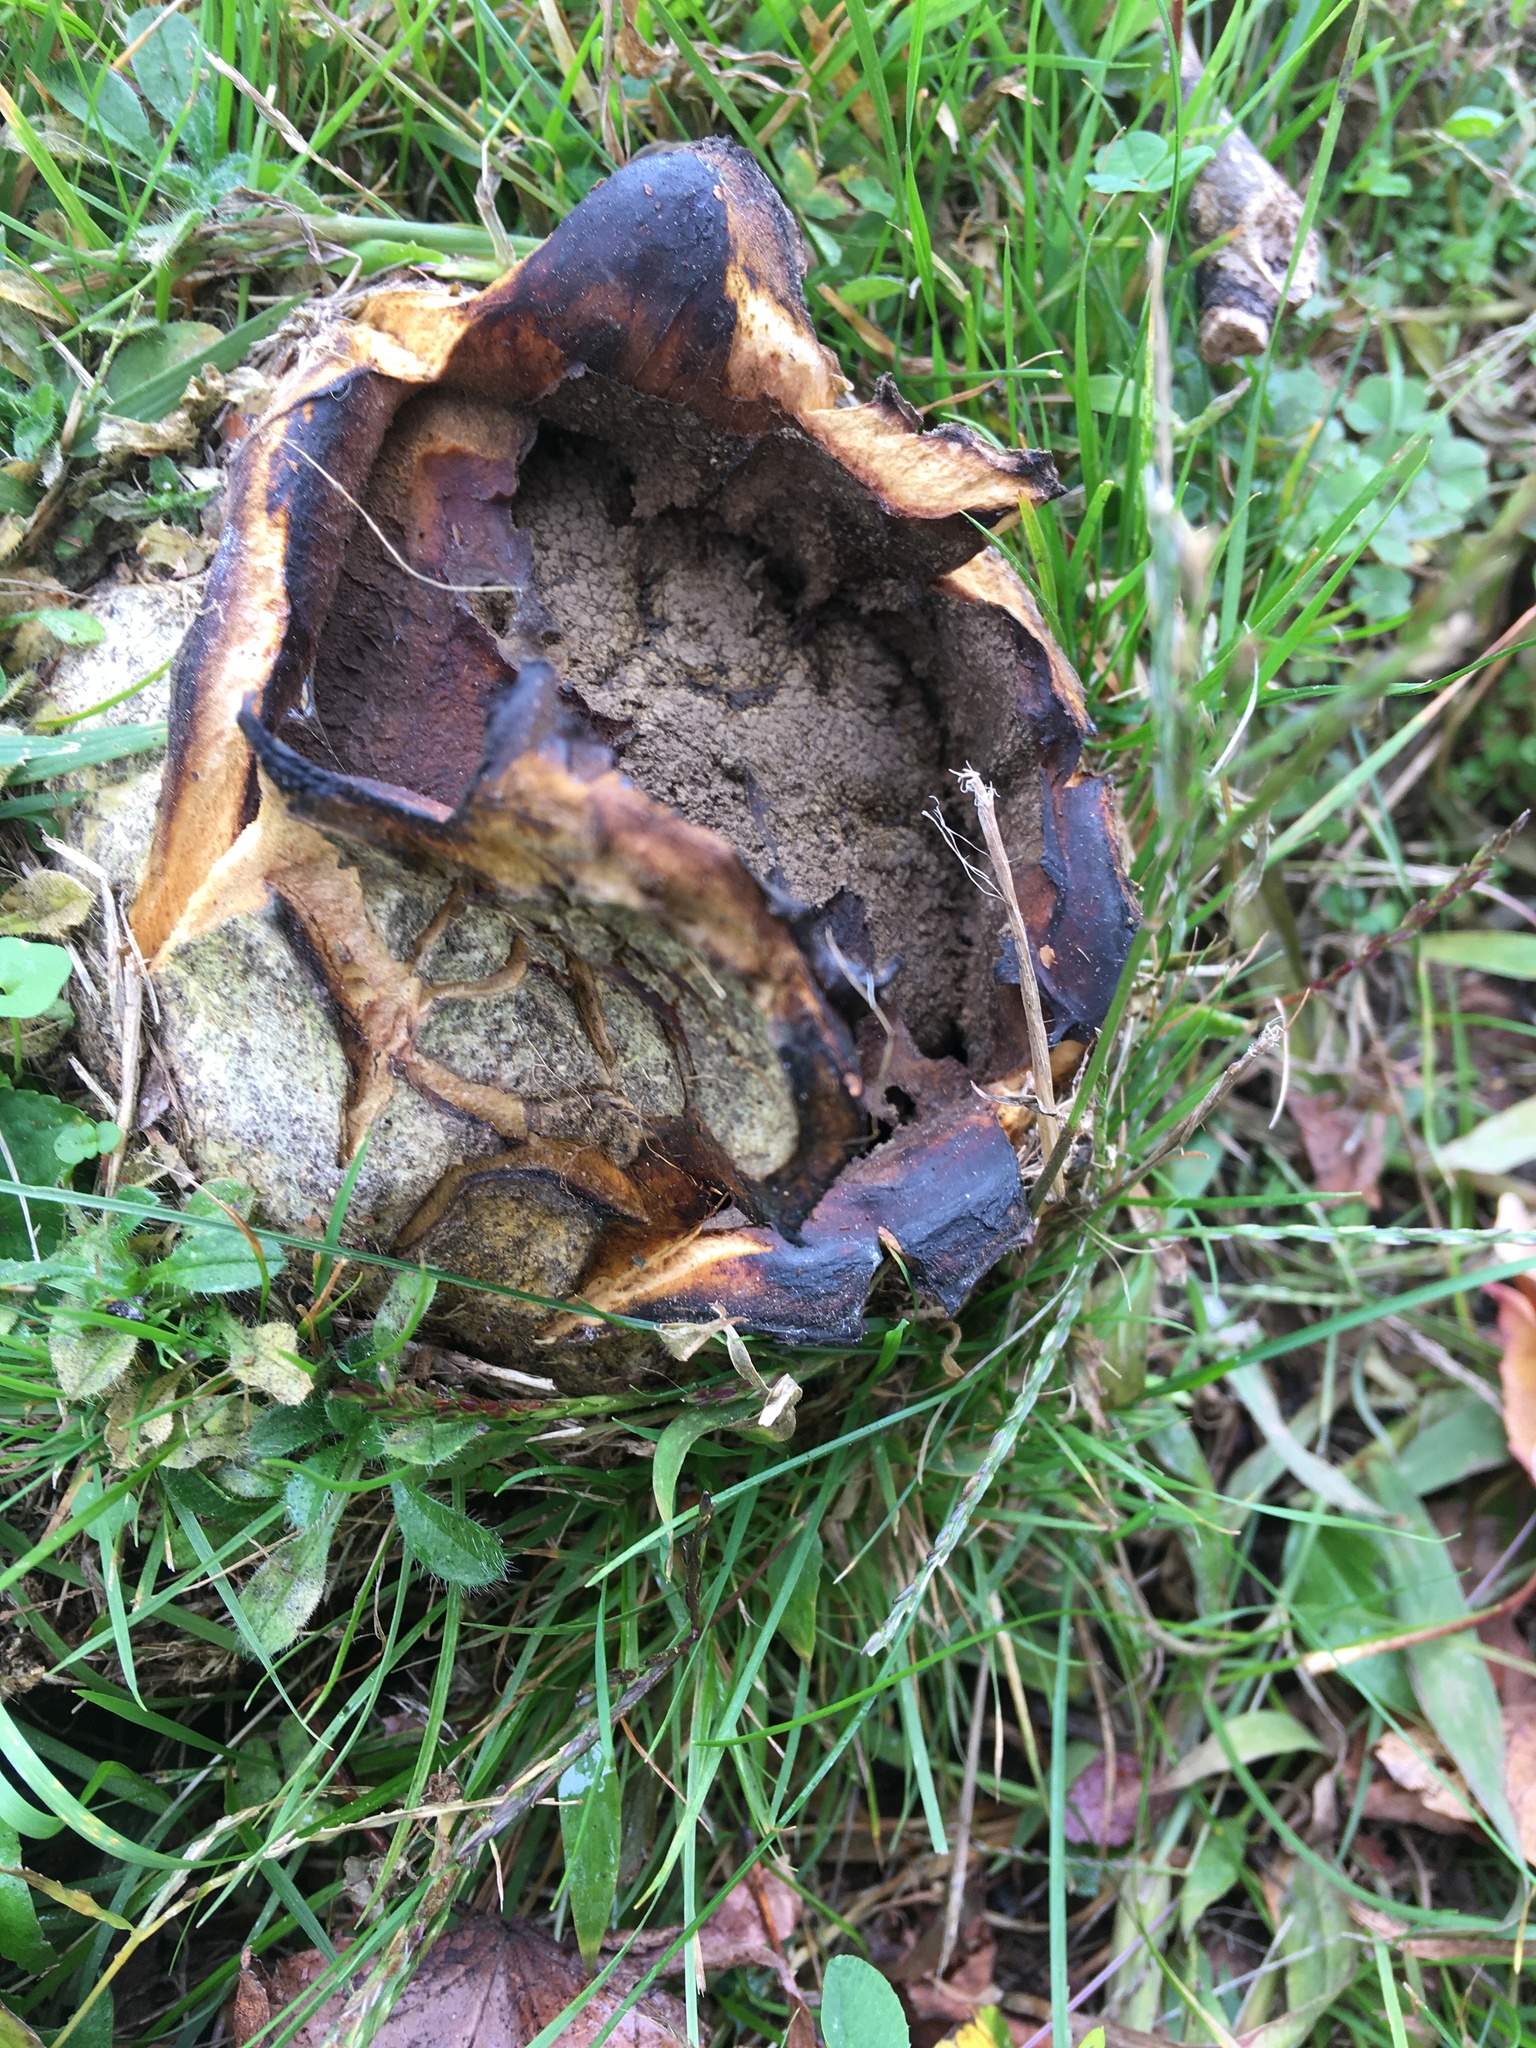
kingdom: Fungi
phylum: Basidiomycota
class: Agaricomycetes
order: Boletales
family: Sclerodermataceae
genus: Scleroderma
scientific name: Scleroderma polyrhizum
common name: Many-rooted earthball
